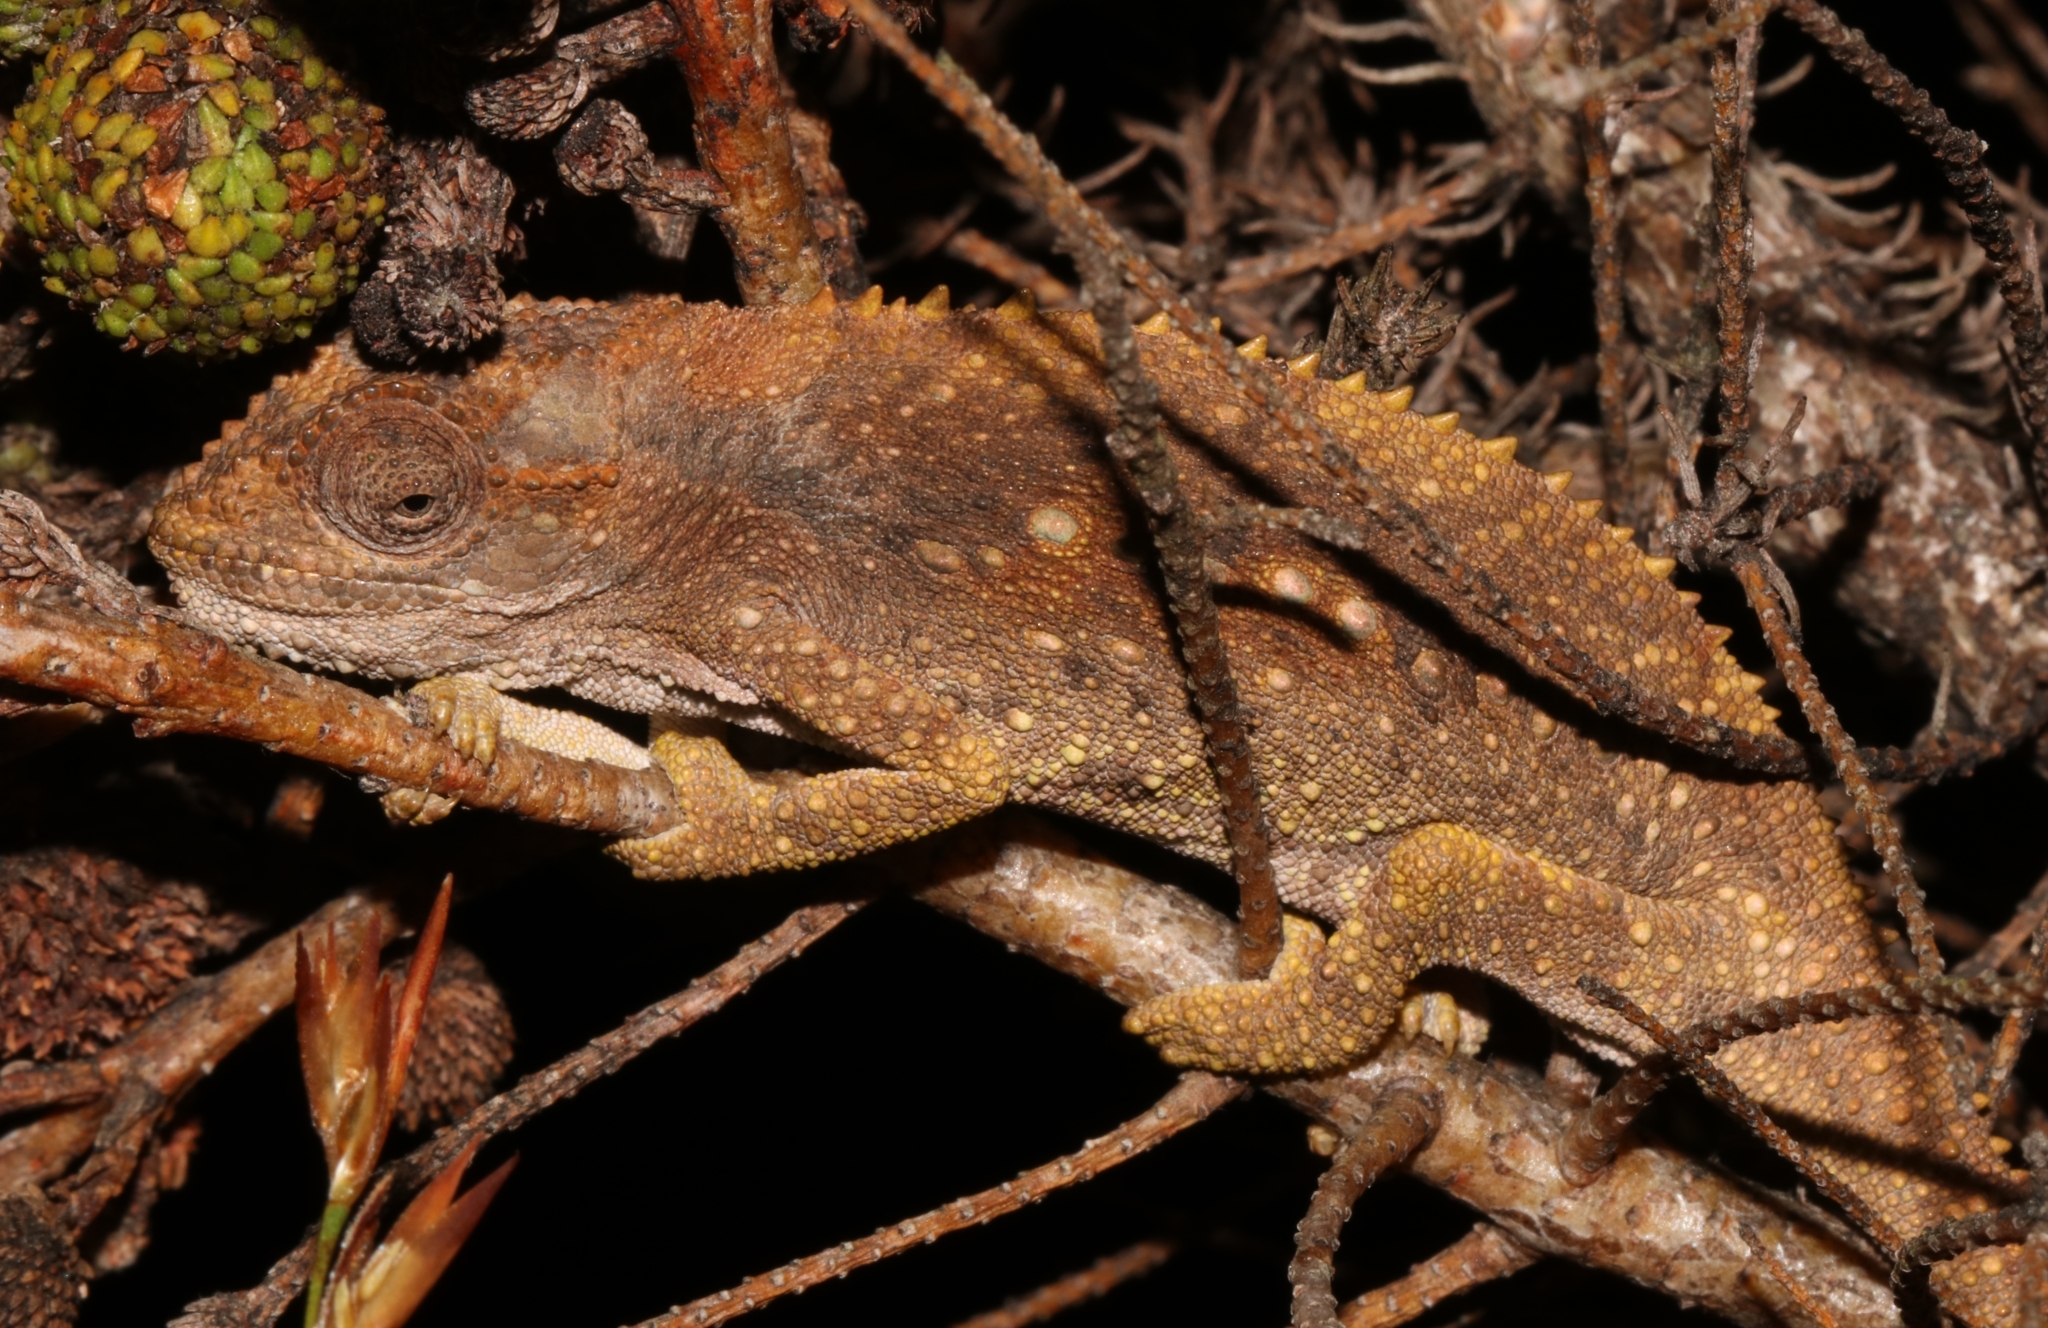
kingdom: Animalia
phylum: Chordata
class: Squamata
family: Chamaeleonidae
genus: Bradypodion
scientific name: Bradypodion gutturale
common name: Little karoo dwarf chameleon
